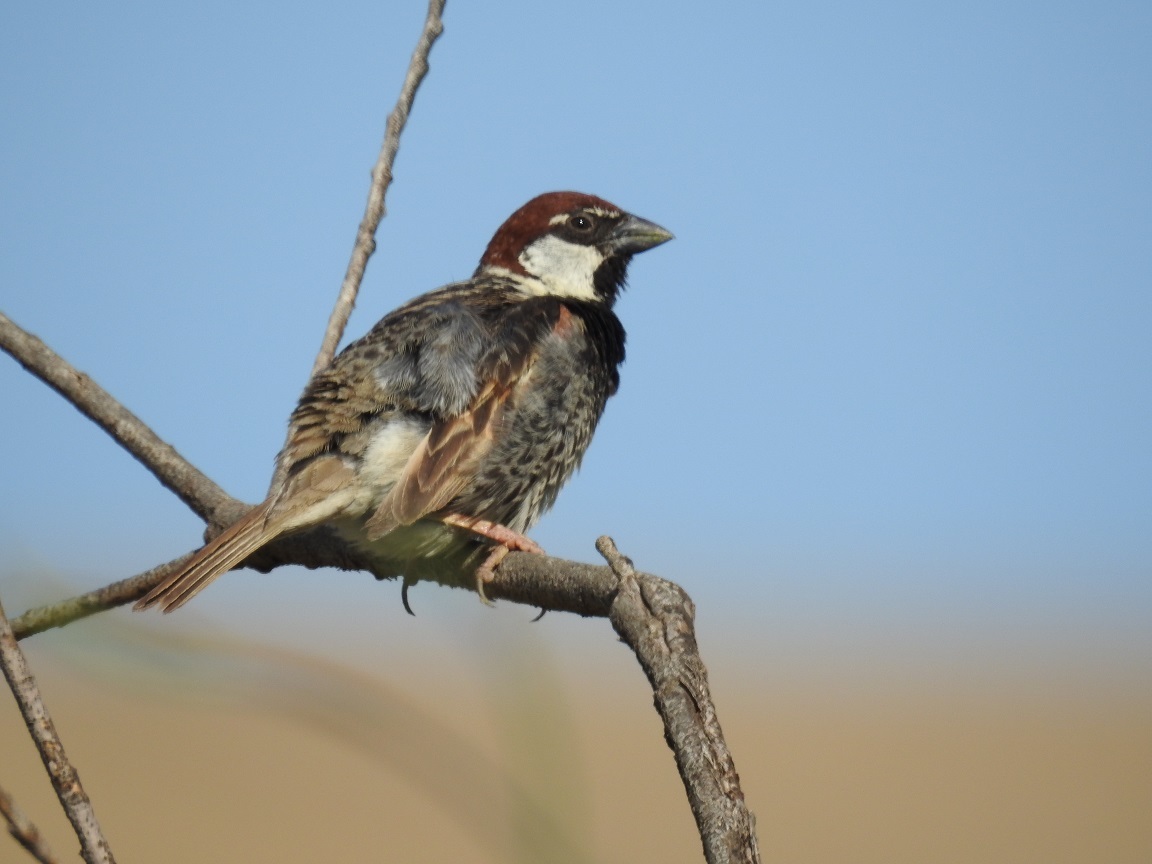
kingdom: Animalia
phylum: Chordata
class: Aves
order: Passeriformes
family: Passeridae
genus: Passer
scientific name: Passer hispaniolensis
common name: Spanish sparrow
